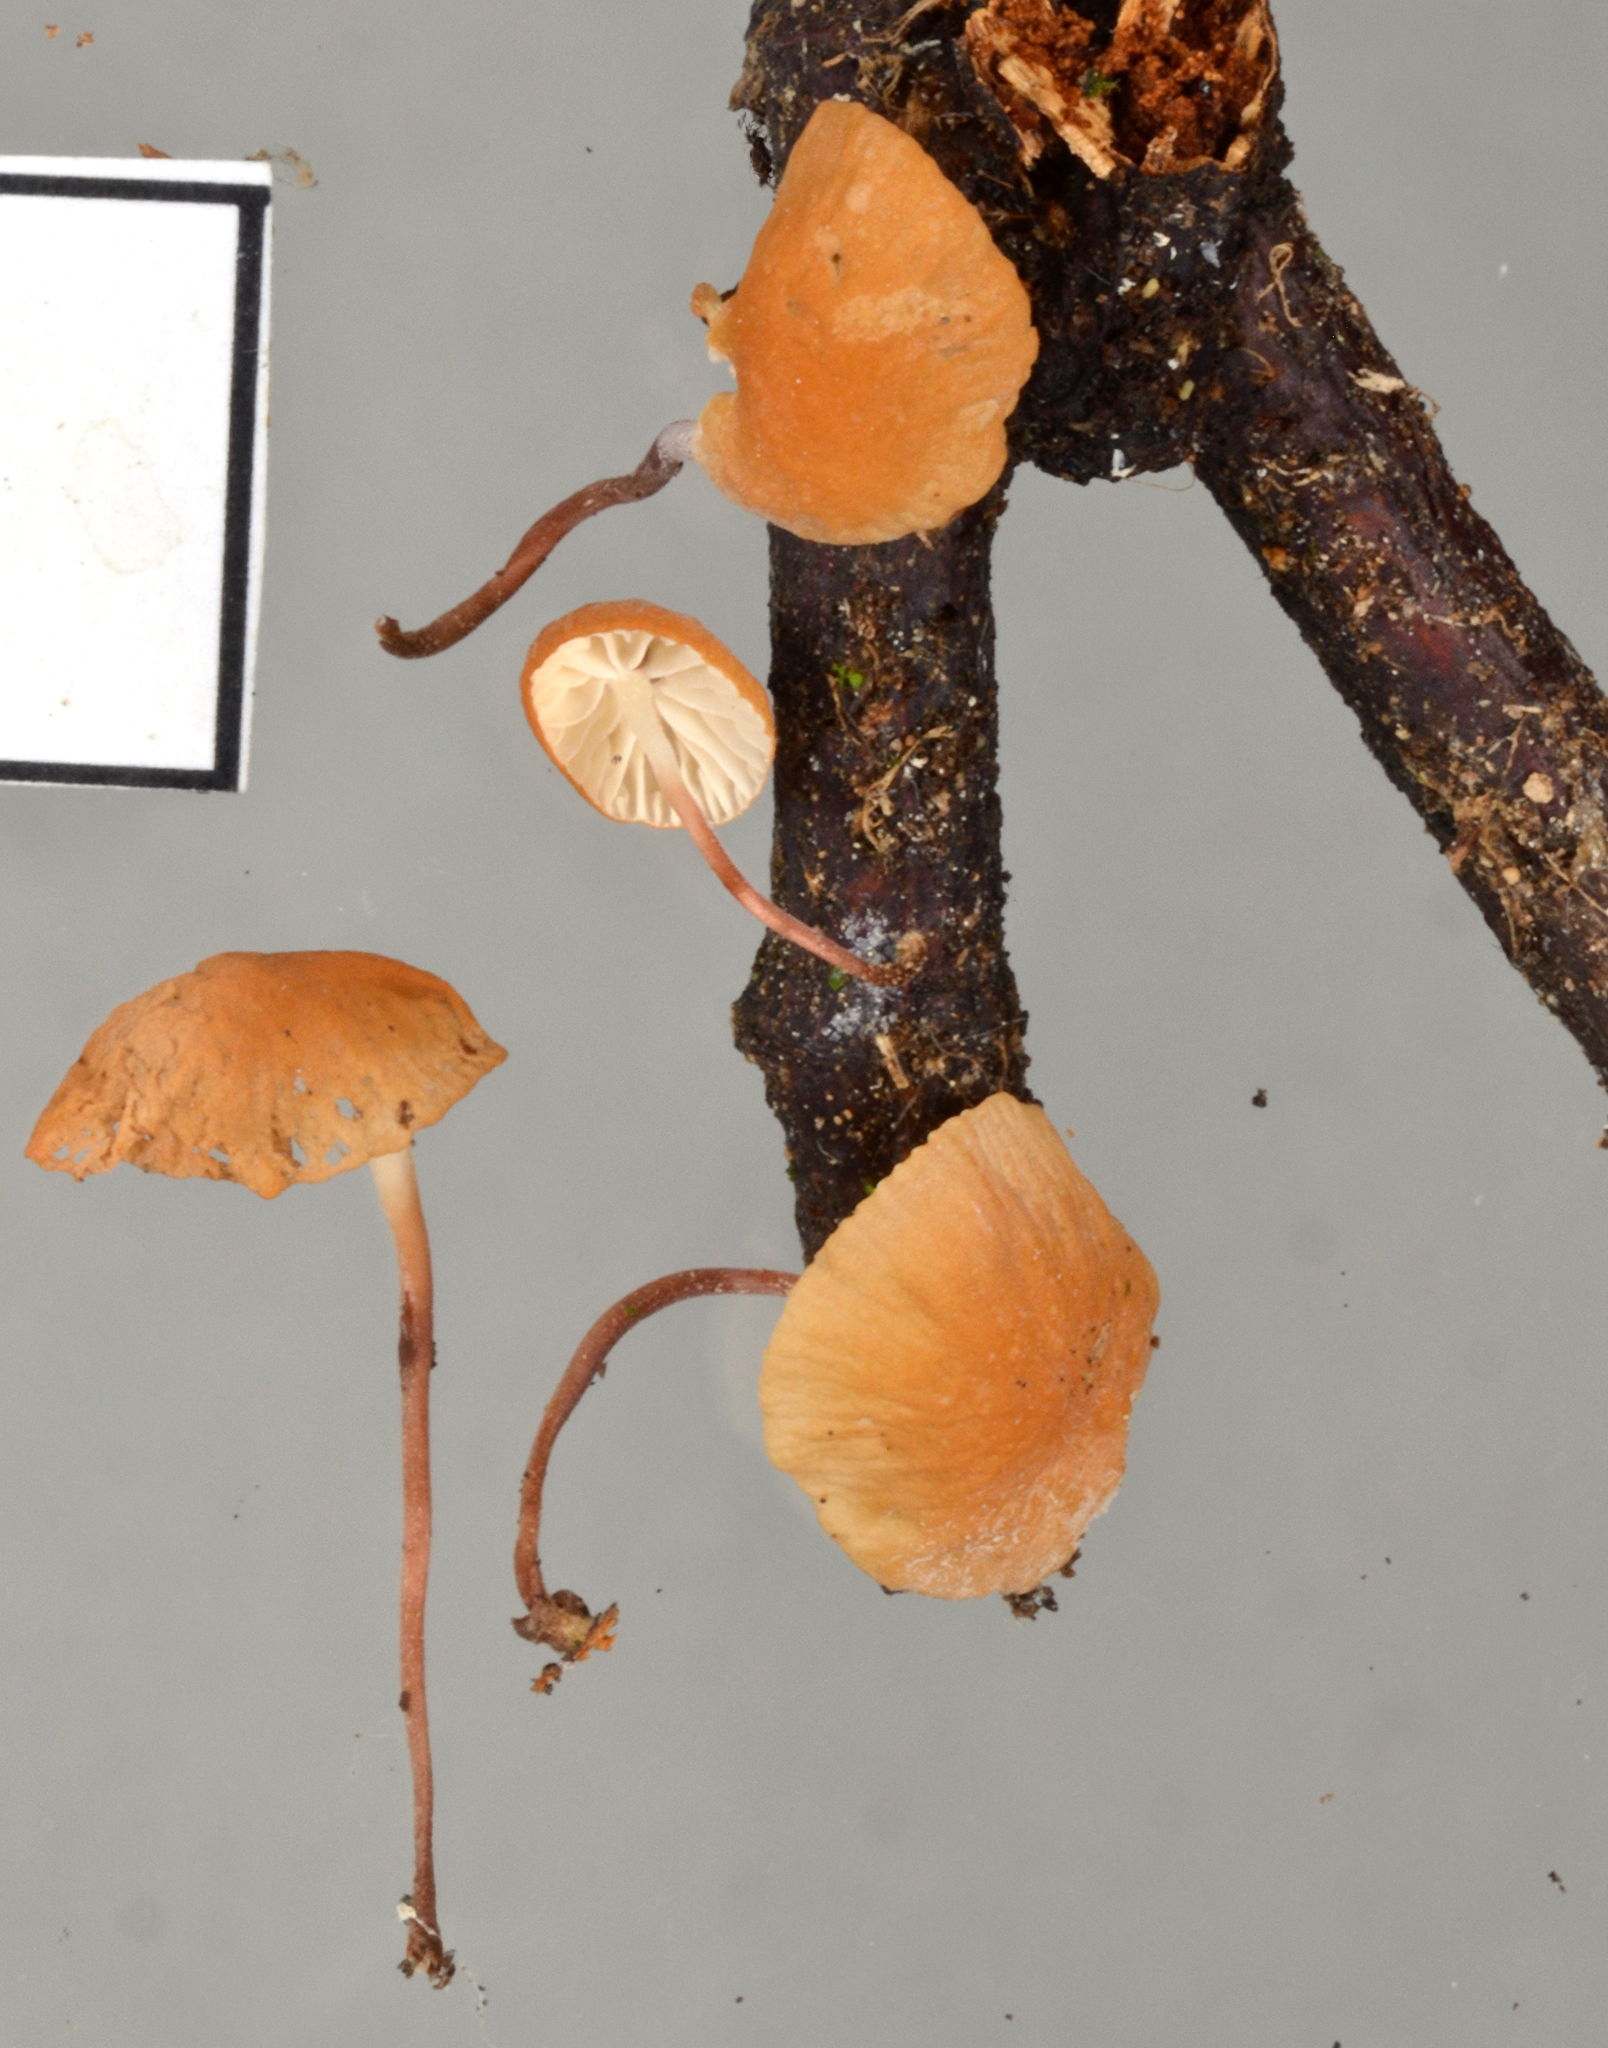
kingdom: Fungi
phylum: Basidiomycota
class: Agaricomycetes
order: Agaricales
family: Marasmiaceae
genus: Marasmius
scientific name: Marasmius croceus
